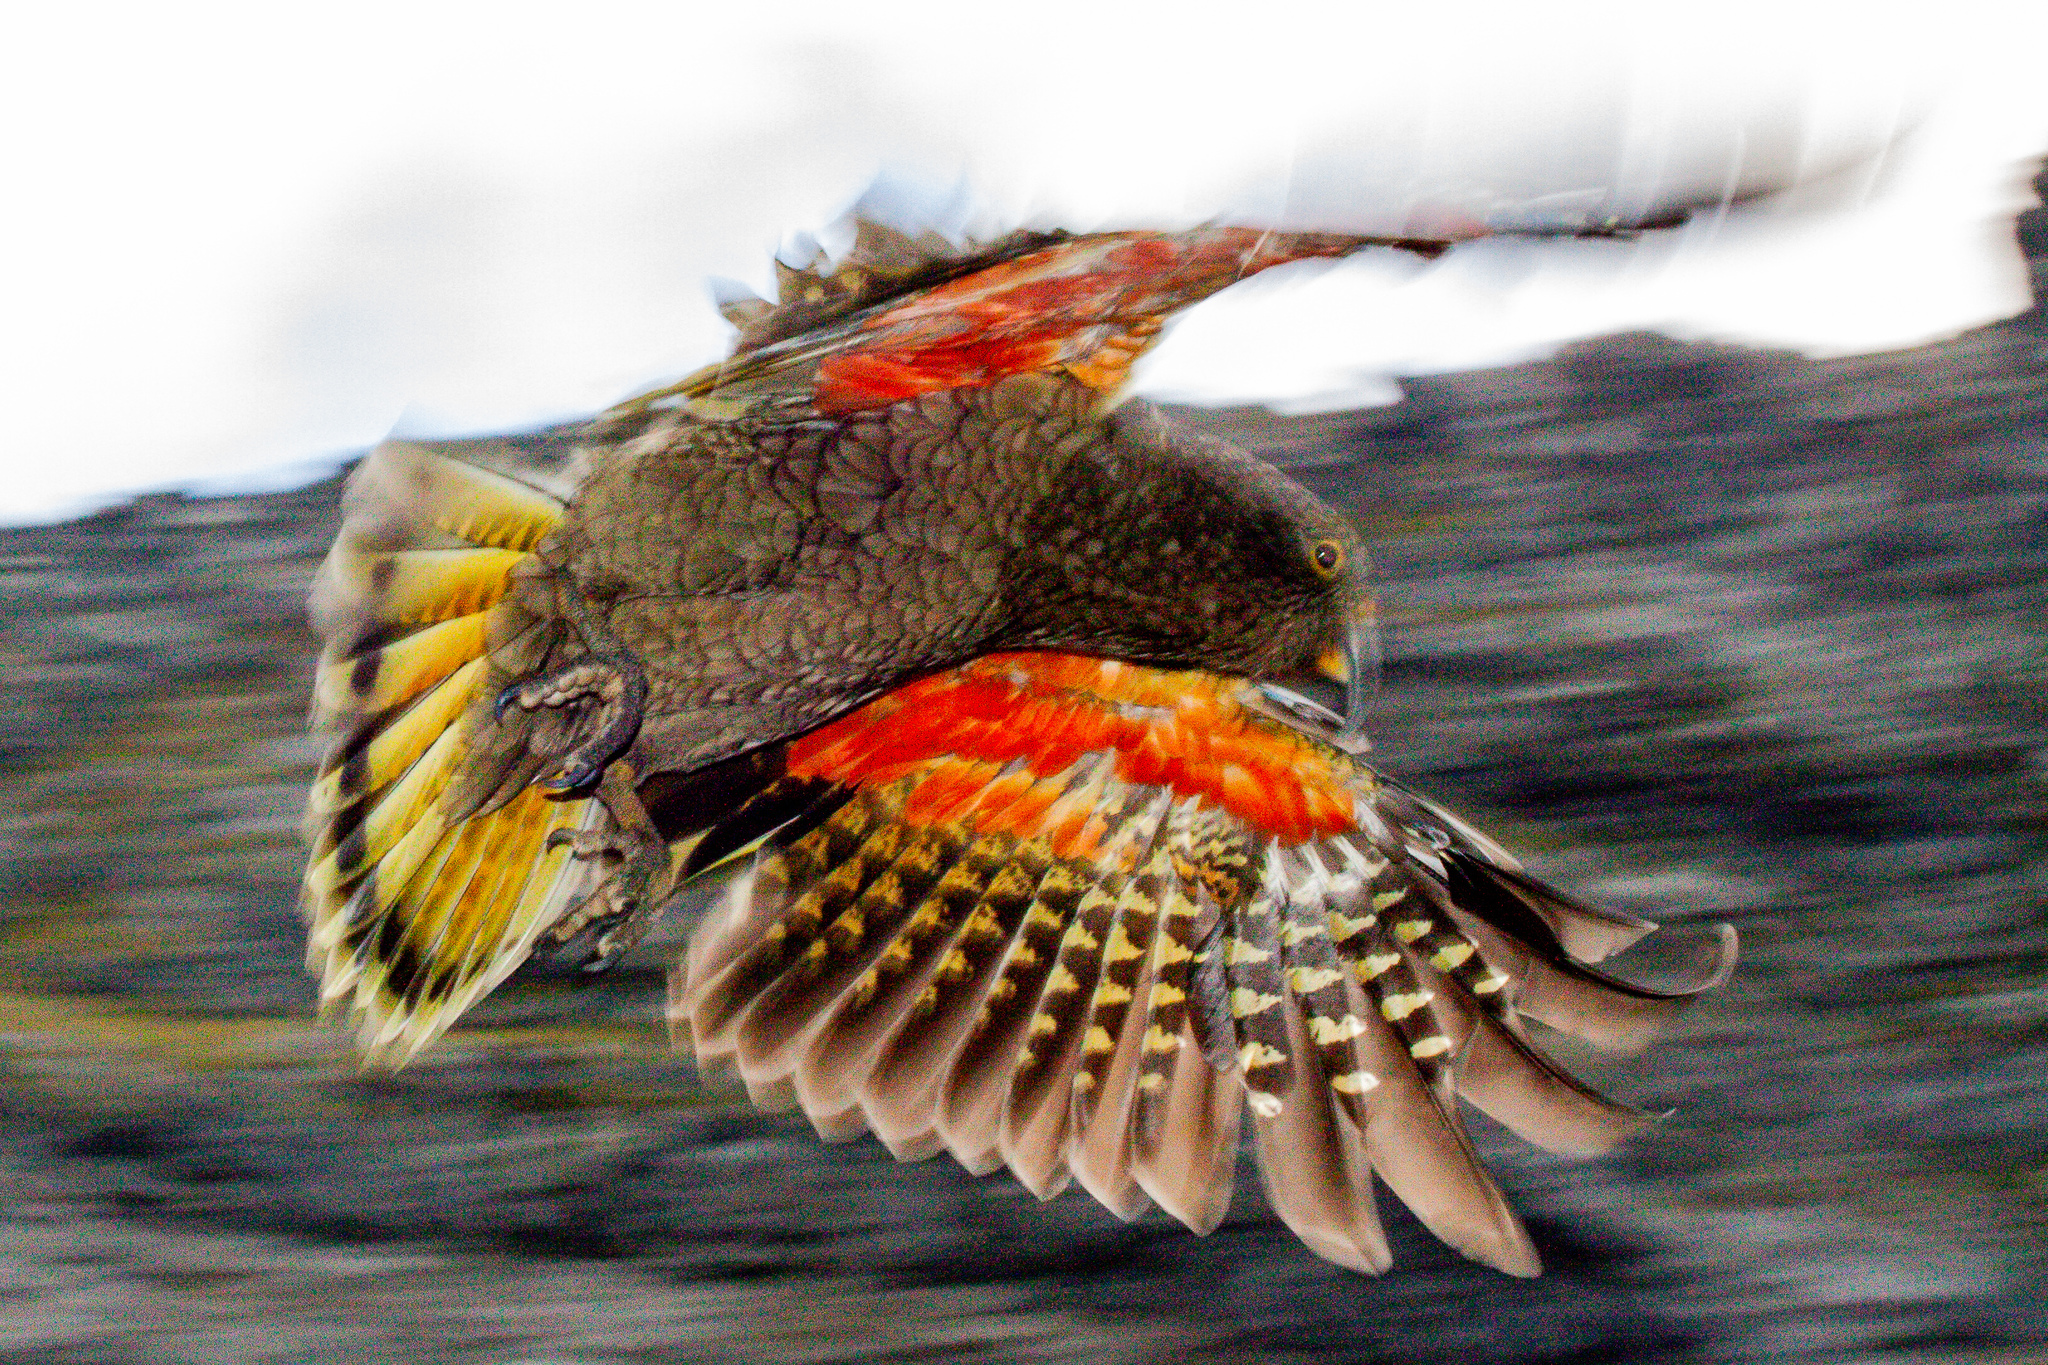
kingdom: Animalia
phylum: Chordata
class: Aves
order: Psittaciformes
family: Psittacidae
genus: Nestor
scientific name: Nestor notabilis
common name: Kea
